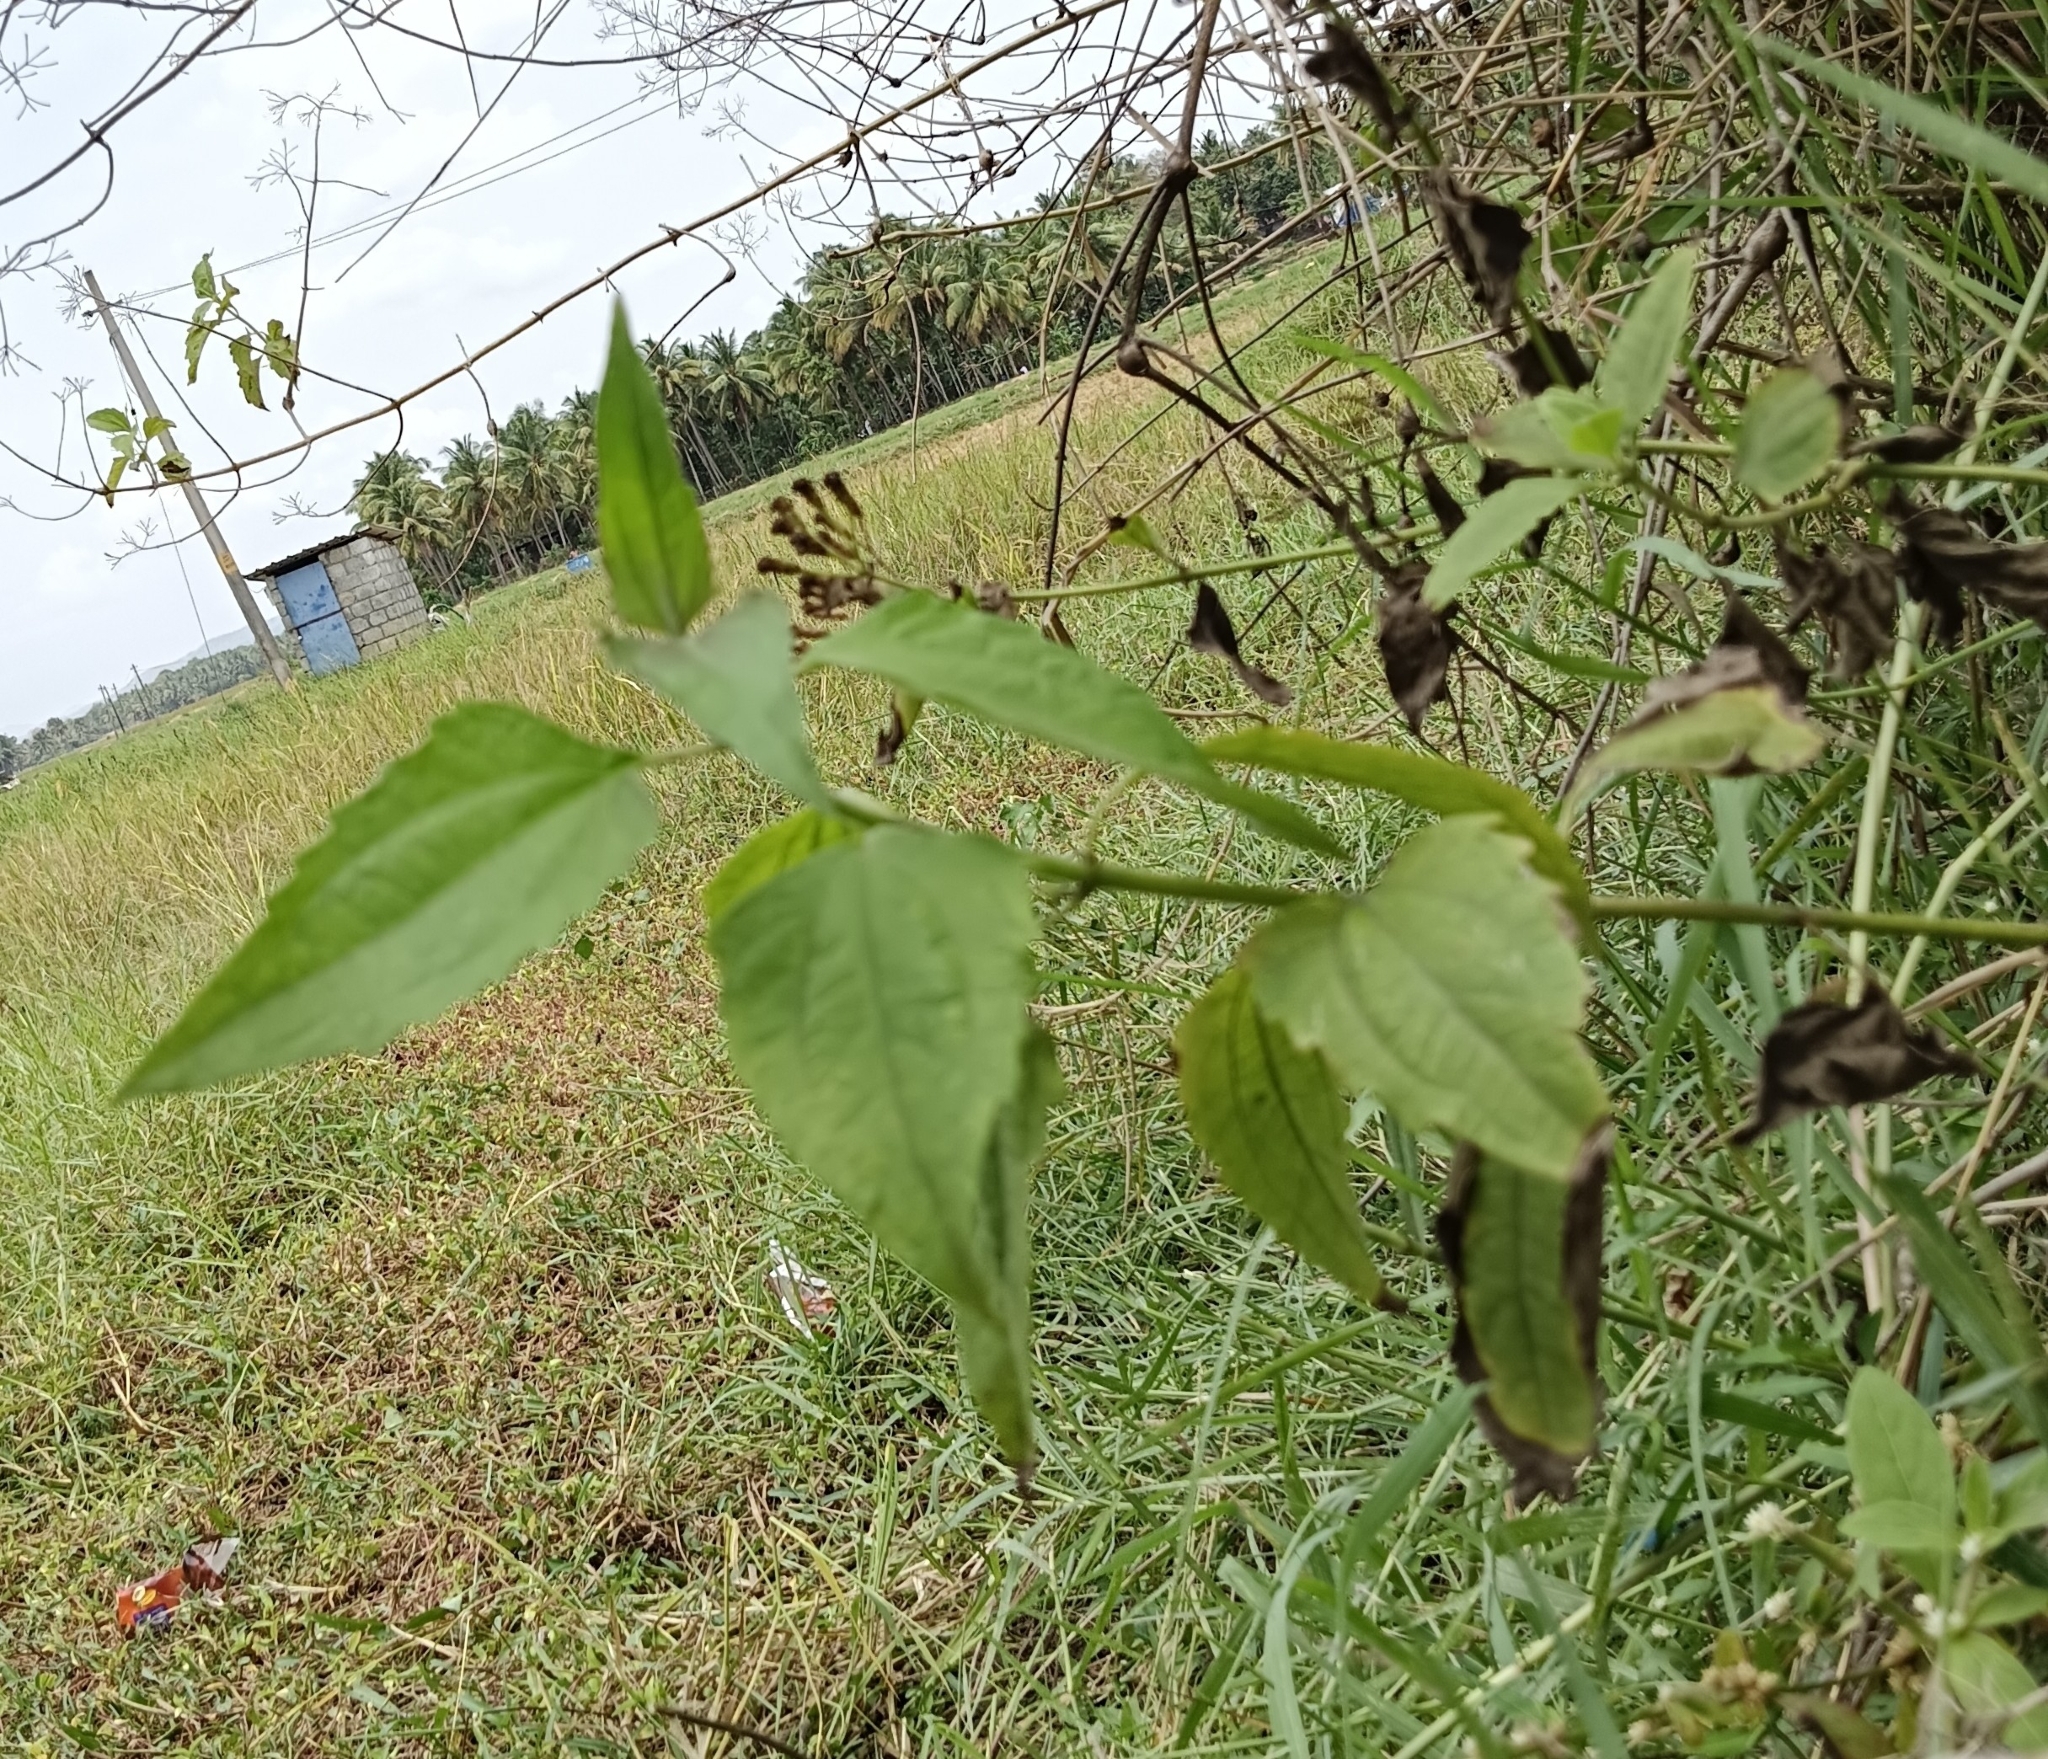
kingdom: Plantae
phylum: Tracheophyta
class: Magnoliopsida
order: Asterales
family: Asteraceae
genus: Chromolaena
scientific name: Chromolaena odorata
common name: Siamweed
